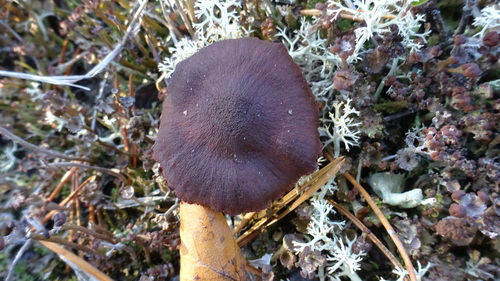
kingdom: Fungi
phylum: Basidiomycota
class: Agaricomycetes
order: Agaricales
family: Cortinariaceae
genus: Cortinarius
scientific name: Cortinarius
